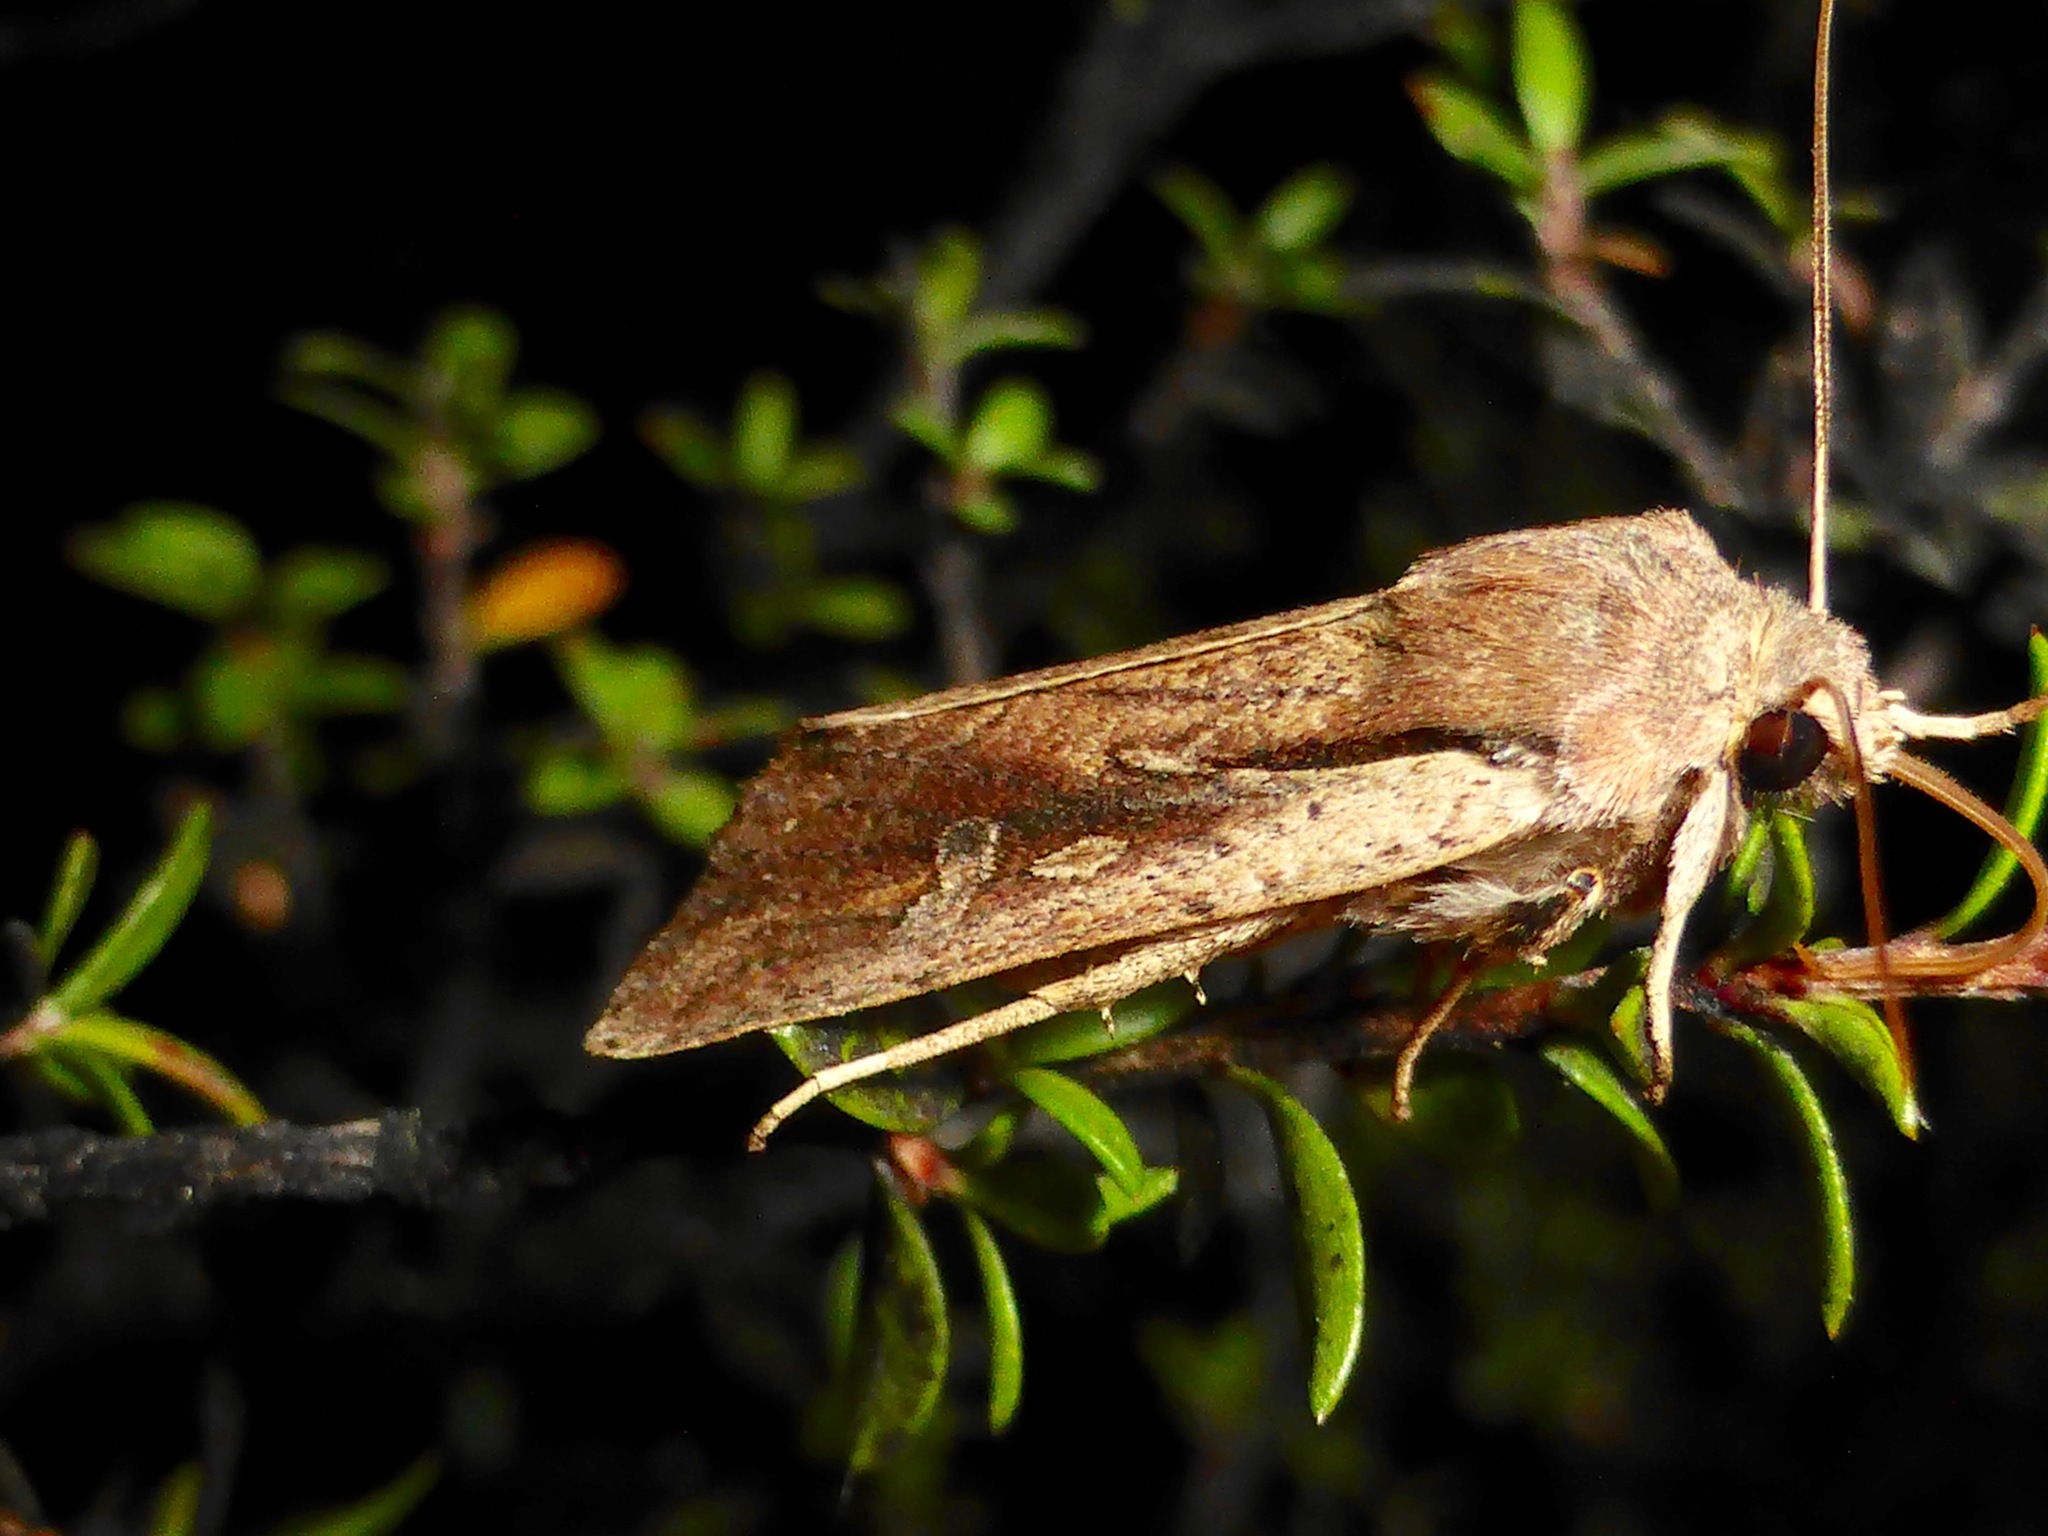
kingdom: Animalia
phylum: Arthropoda
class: Insecta
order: Lepidoptera
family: Noctuidae
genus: Ichneutica
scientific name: Ichneutica atristriga
